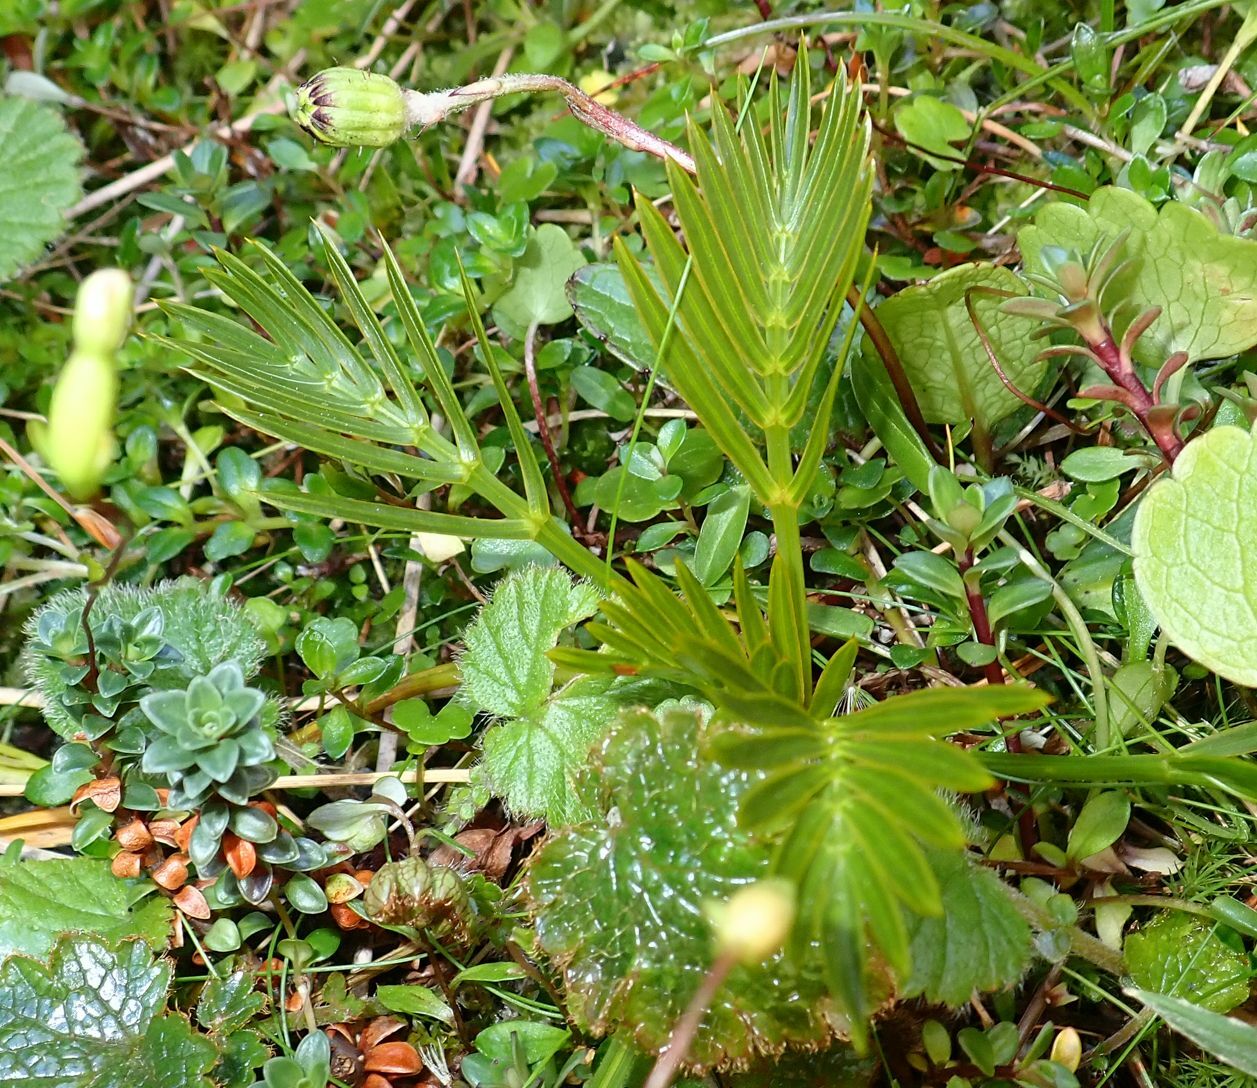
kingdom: Plantae
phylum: Tracheophyta
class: Magnoliopsida
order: Apiales
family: Apiaceae
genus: Aciphylla
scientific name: Aciphylla similis
